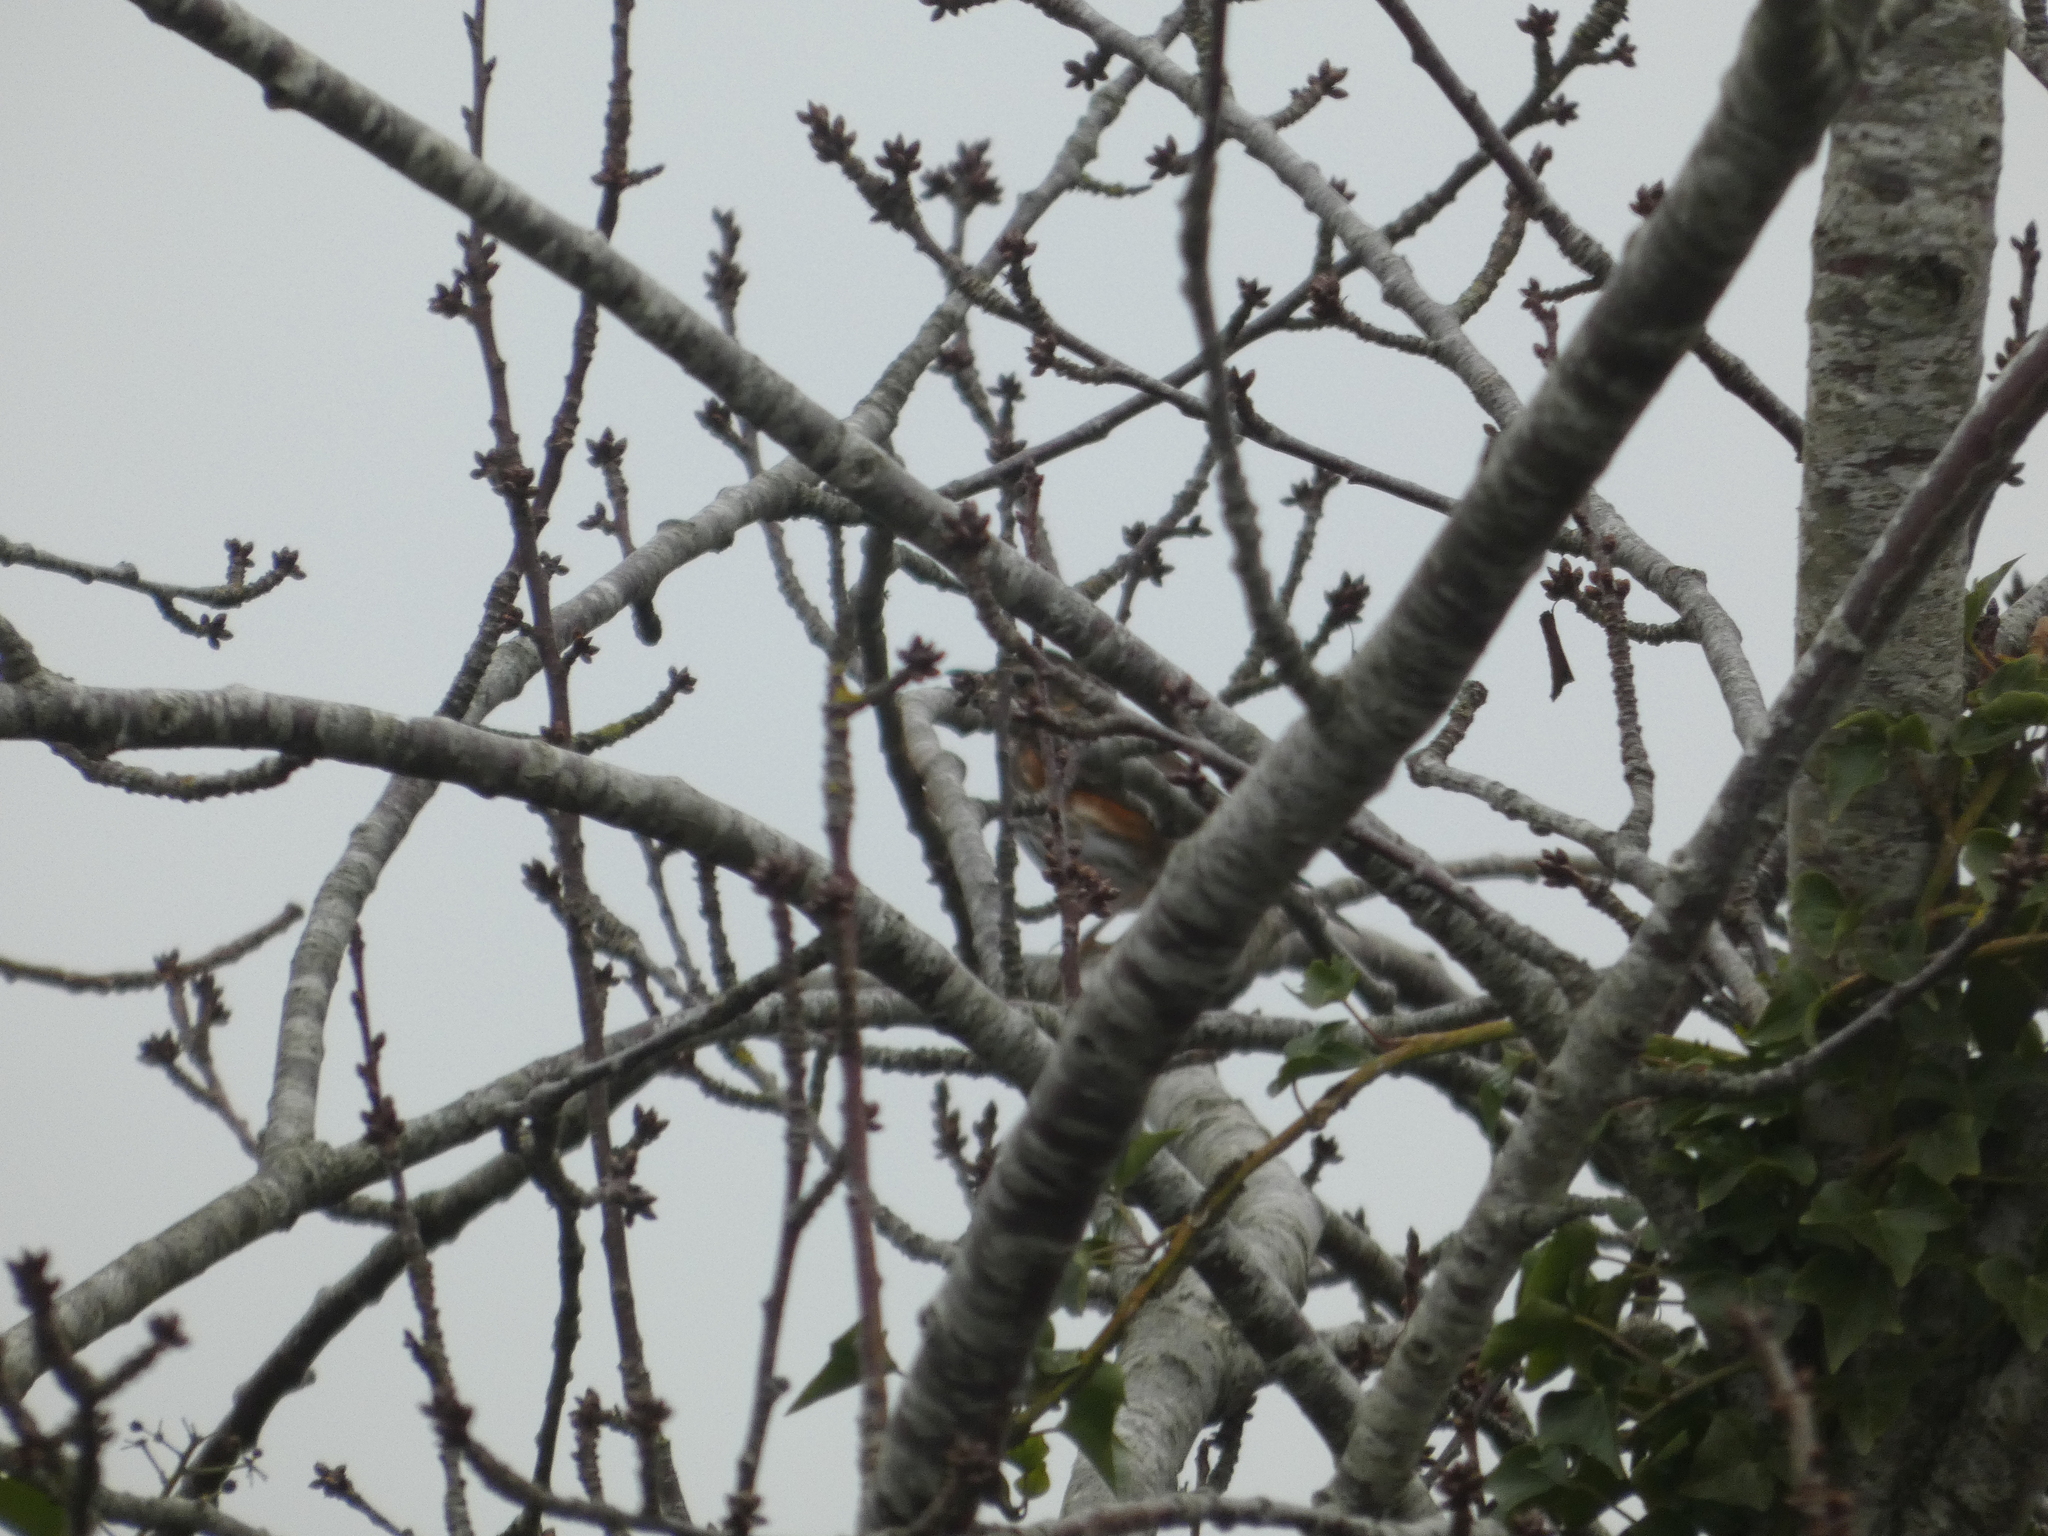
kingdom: Animalia
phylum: Chordata
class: Aves
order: Passeriformes
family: Turdidae
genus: Turdus
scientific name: Turdus iliacus
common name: Redwing
